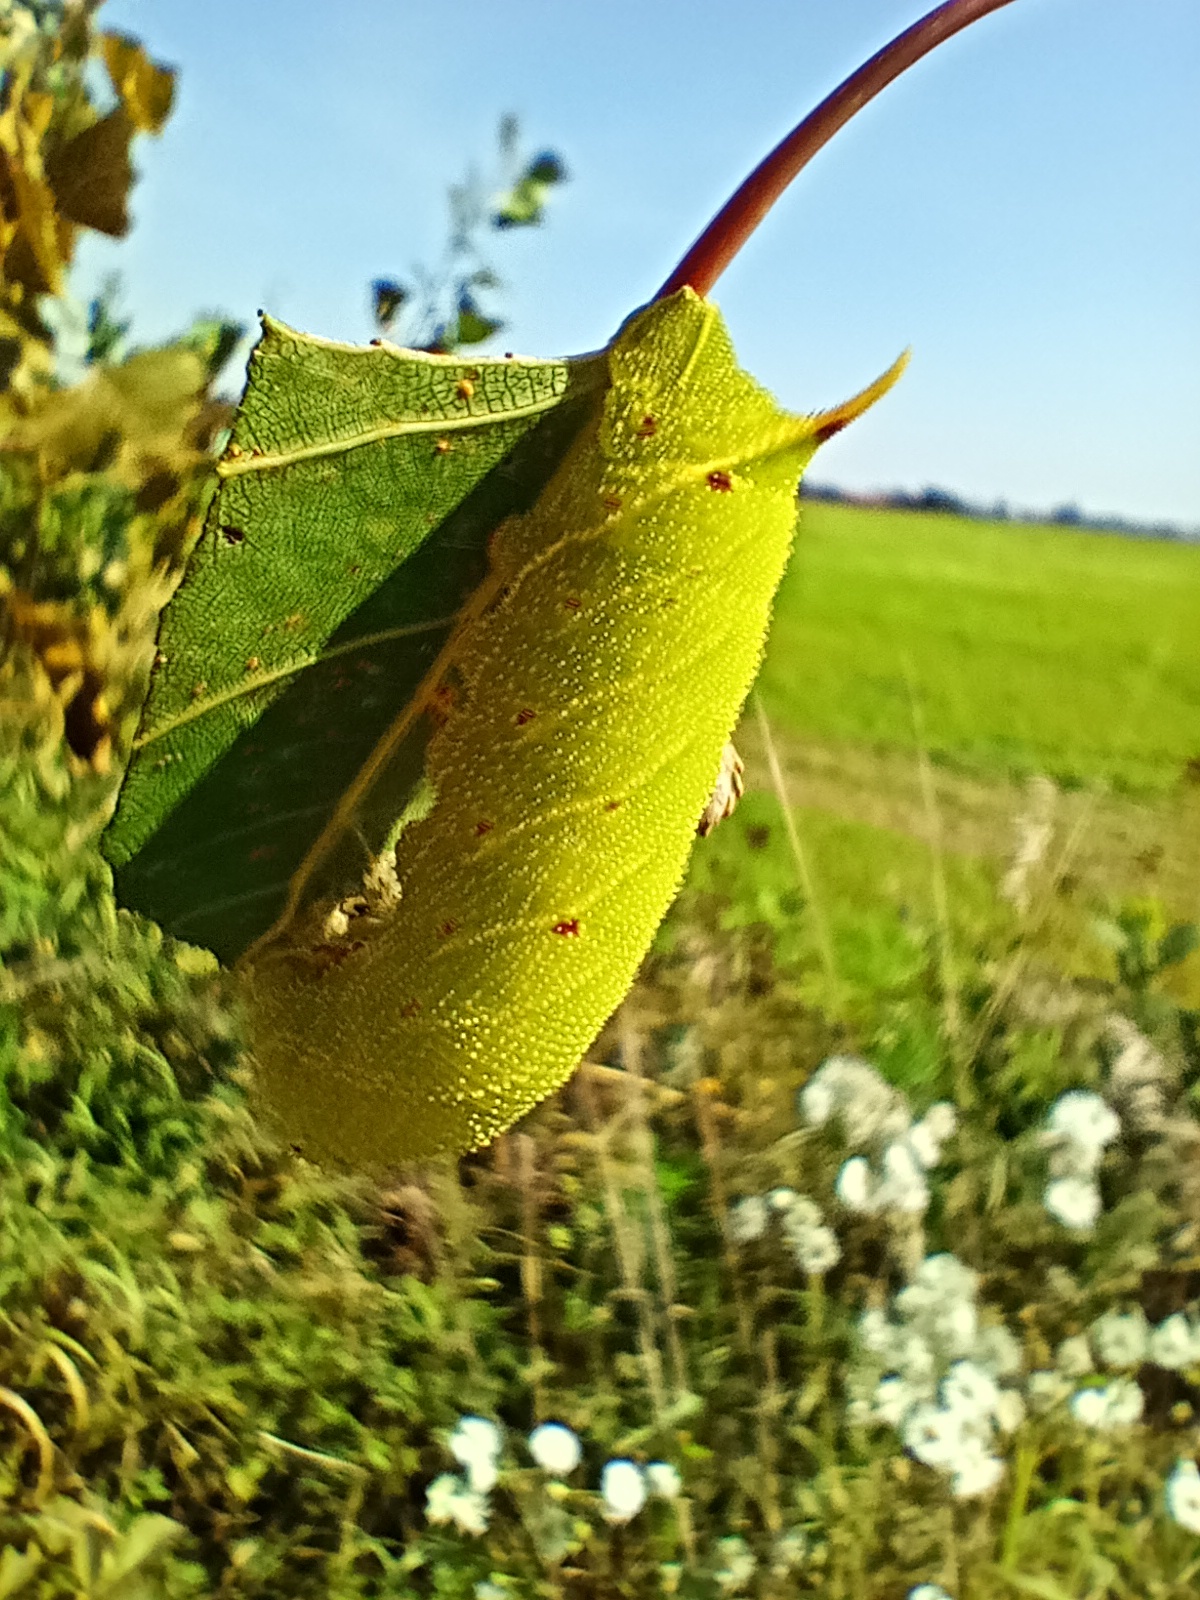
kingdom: Animalia
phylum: Arthropoda
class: Insecta
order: Lepidoptera
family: Sphingidae
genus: Laothoe
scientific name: Laothoe populi
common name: Poplar hawk-moth
